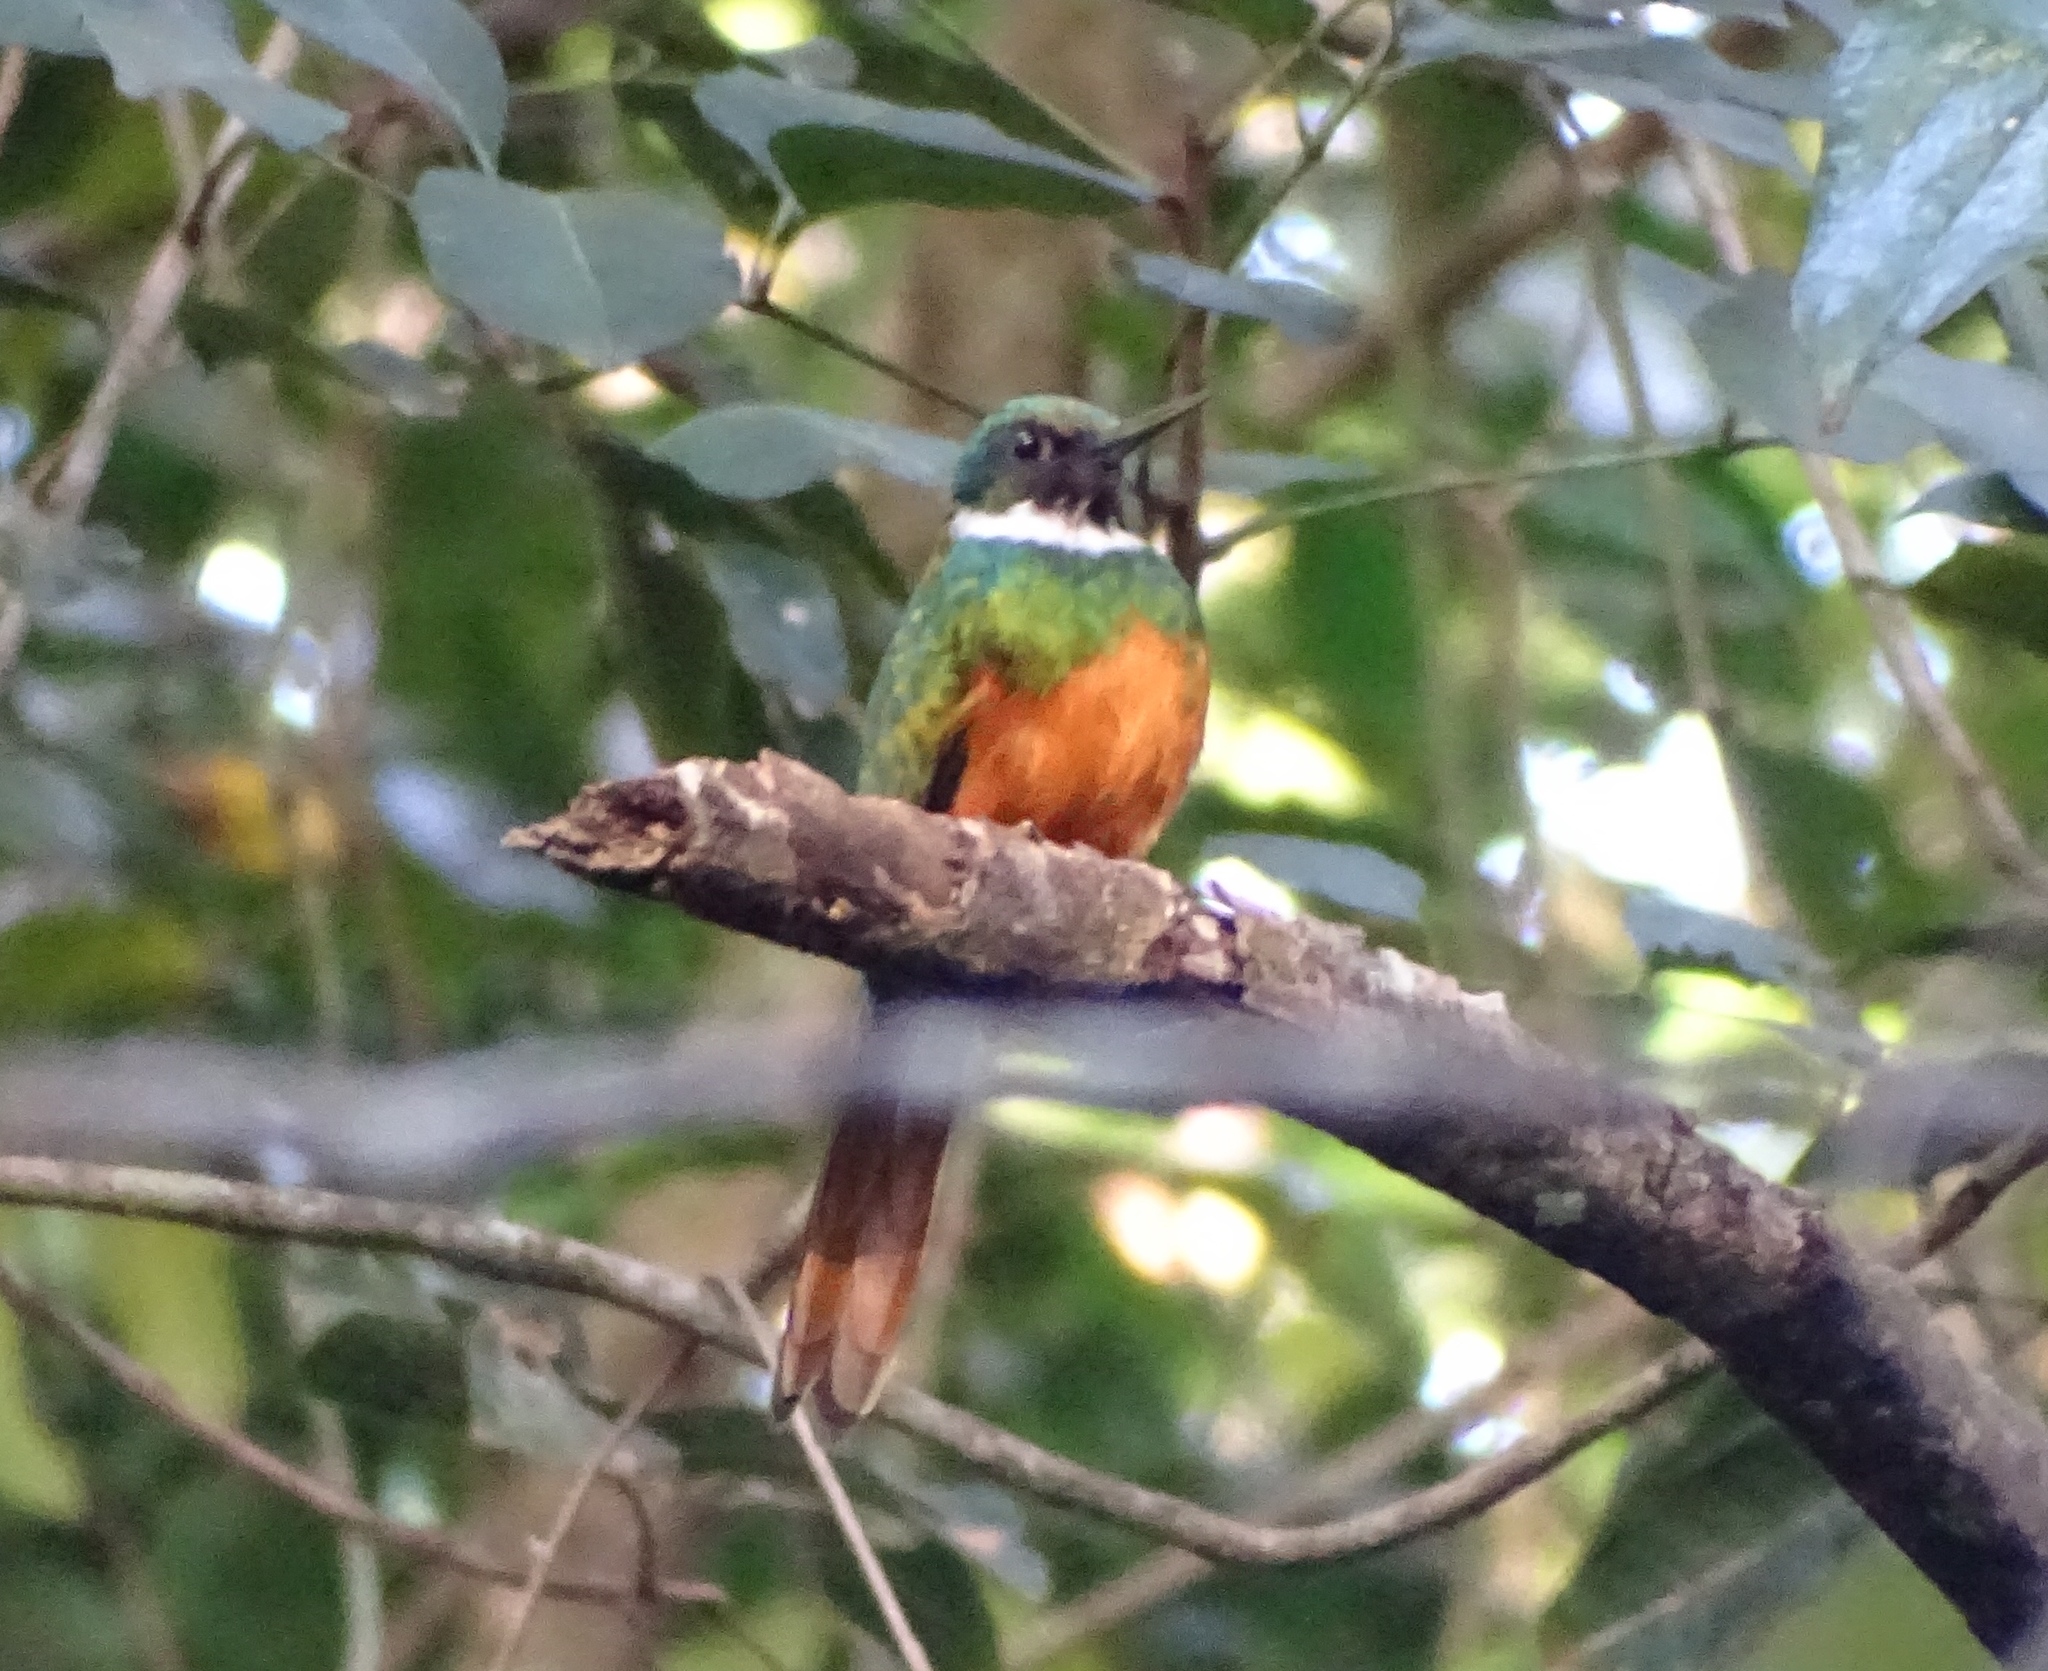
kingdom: Animalia
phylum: Chordata
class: Aves
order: Piciformes
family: Galbulidae
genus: Galbula
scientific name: Galbula ruficauda
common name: Rufous-tailed jacamar
